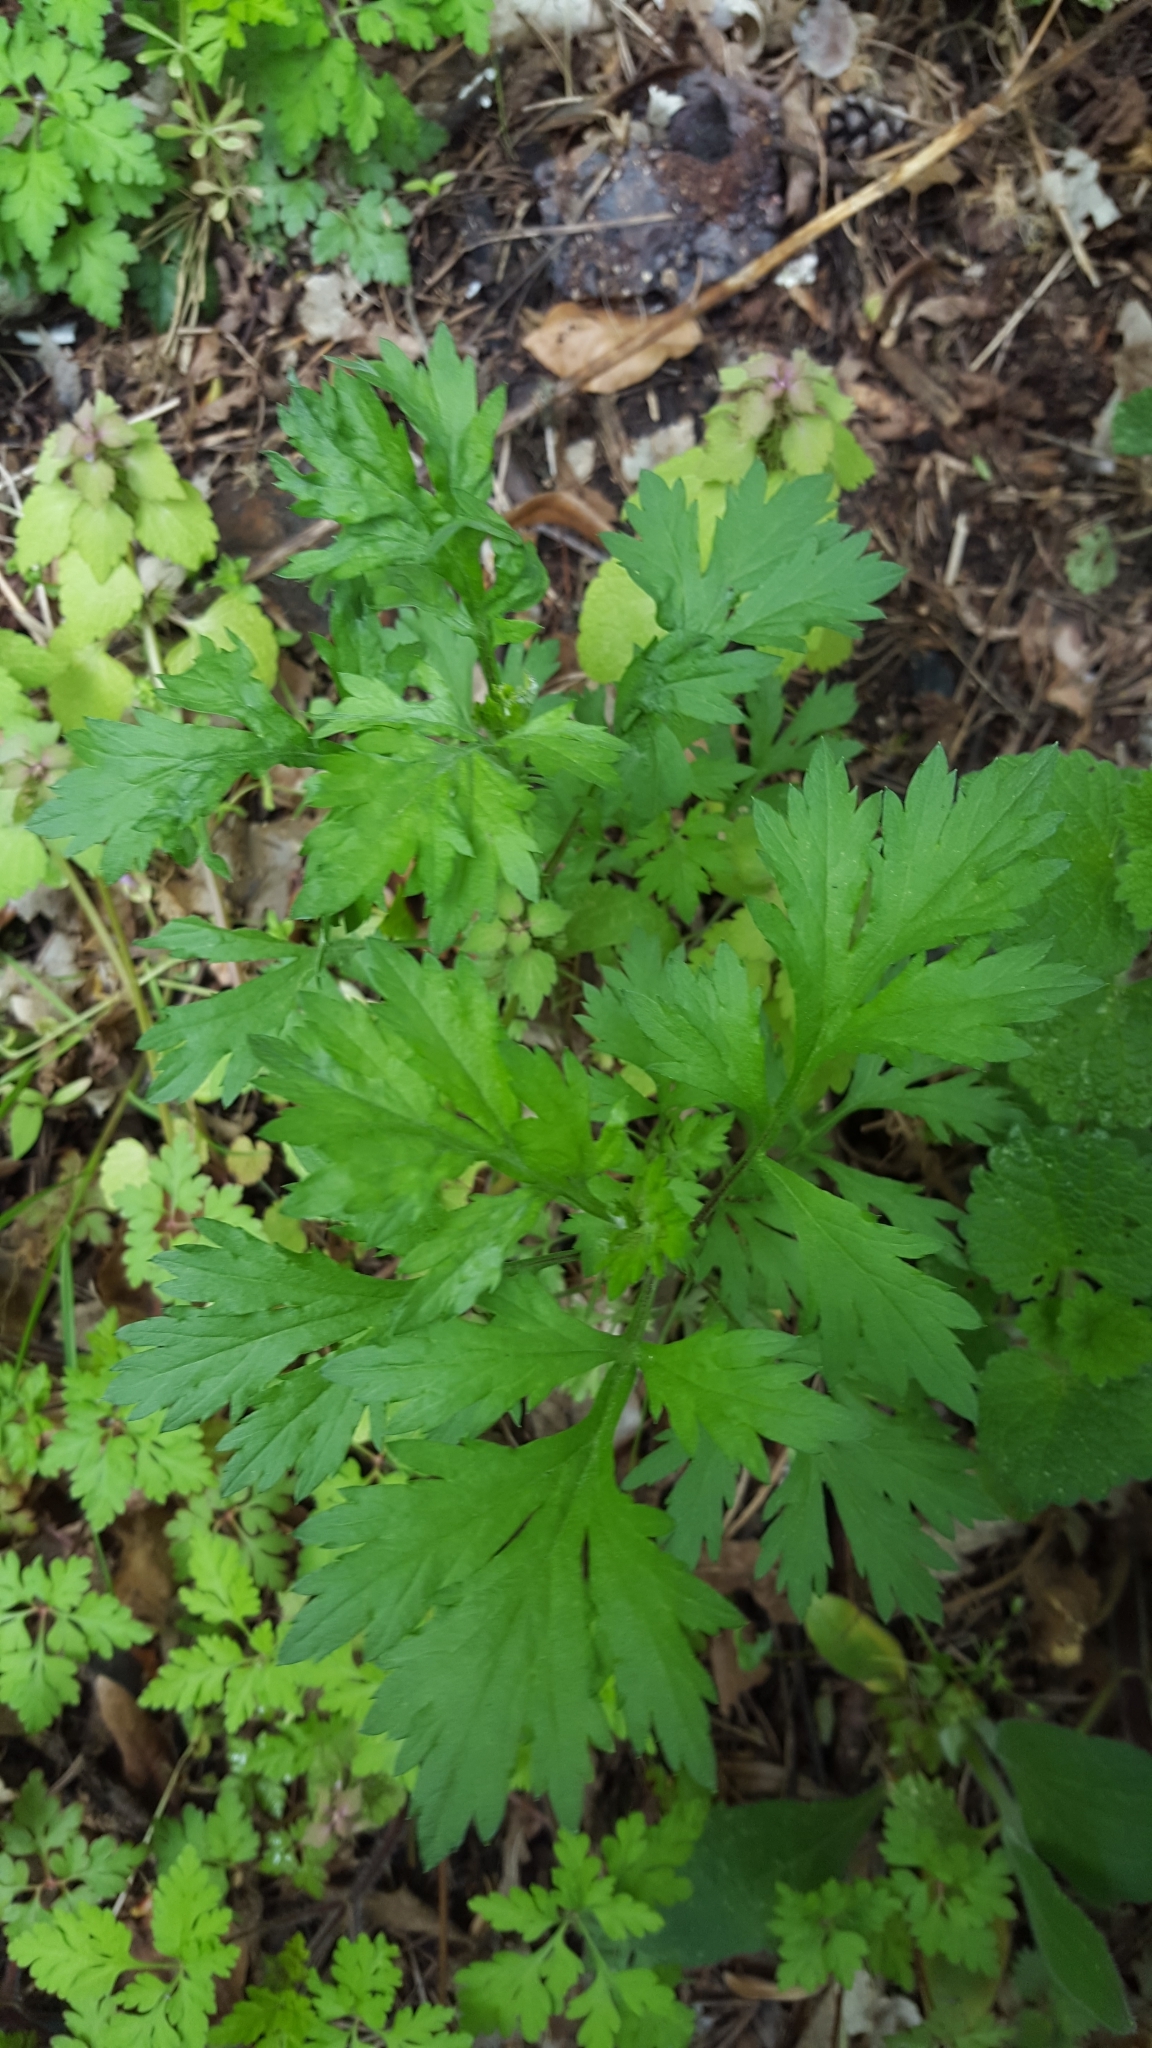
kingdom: Plantae
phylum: Tracheophyta
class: Magnoliopsida
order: Asterales
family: Asteraceae
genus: Artemisia
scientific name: Artemisia vulgaris
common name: Mugwort
